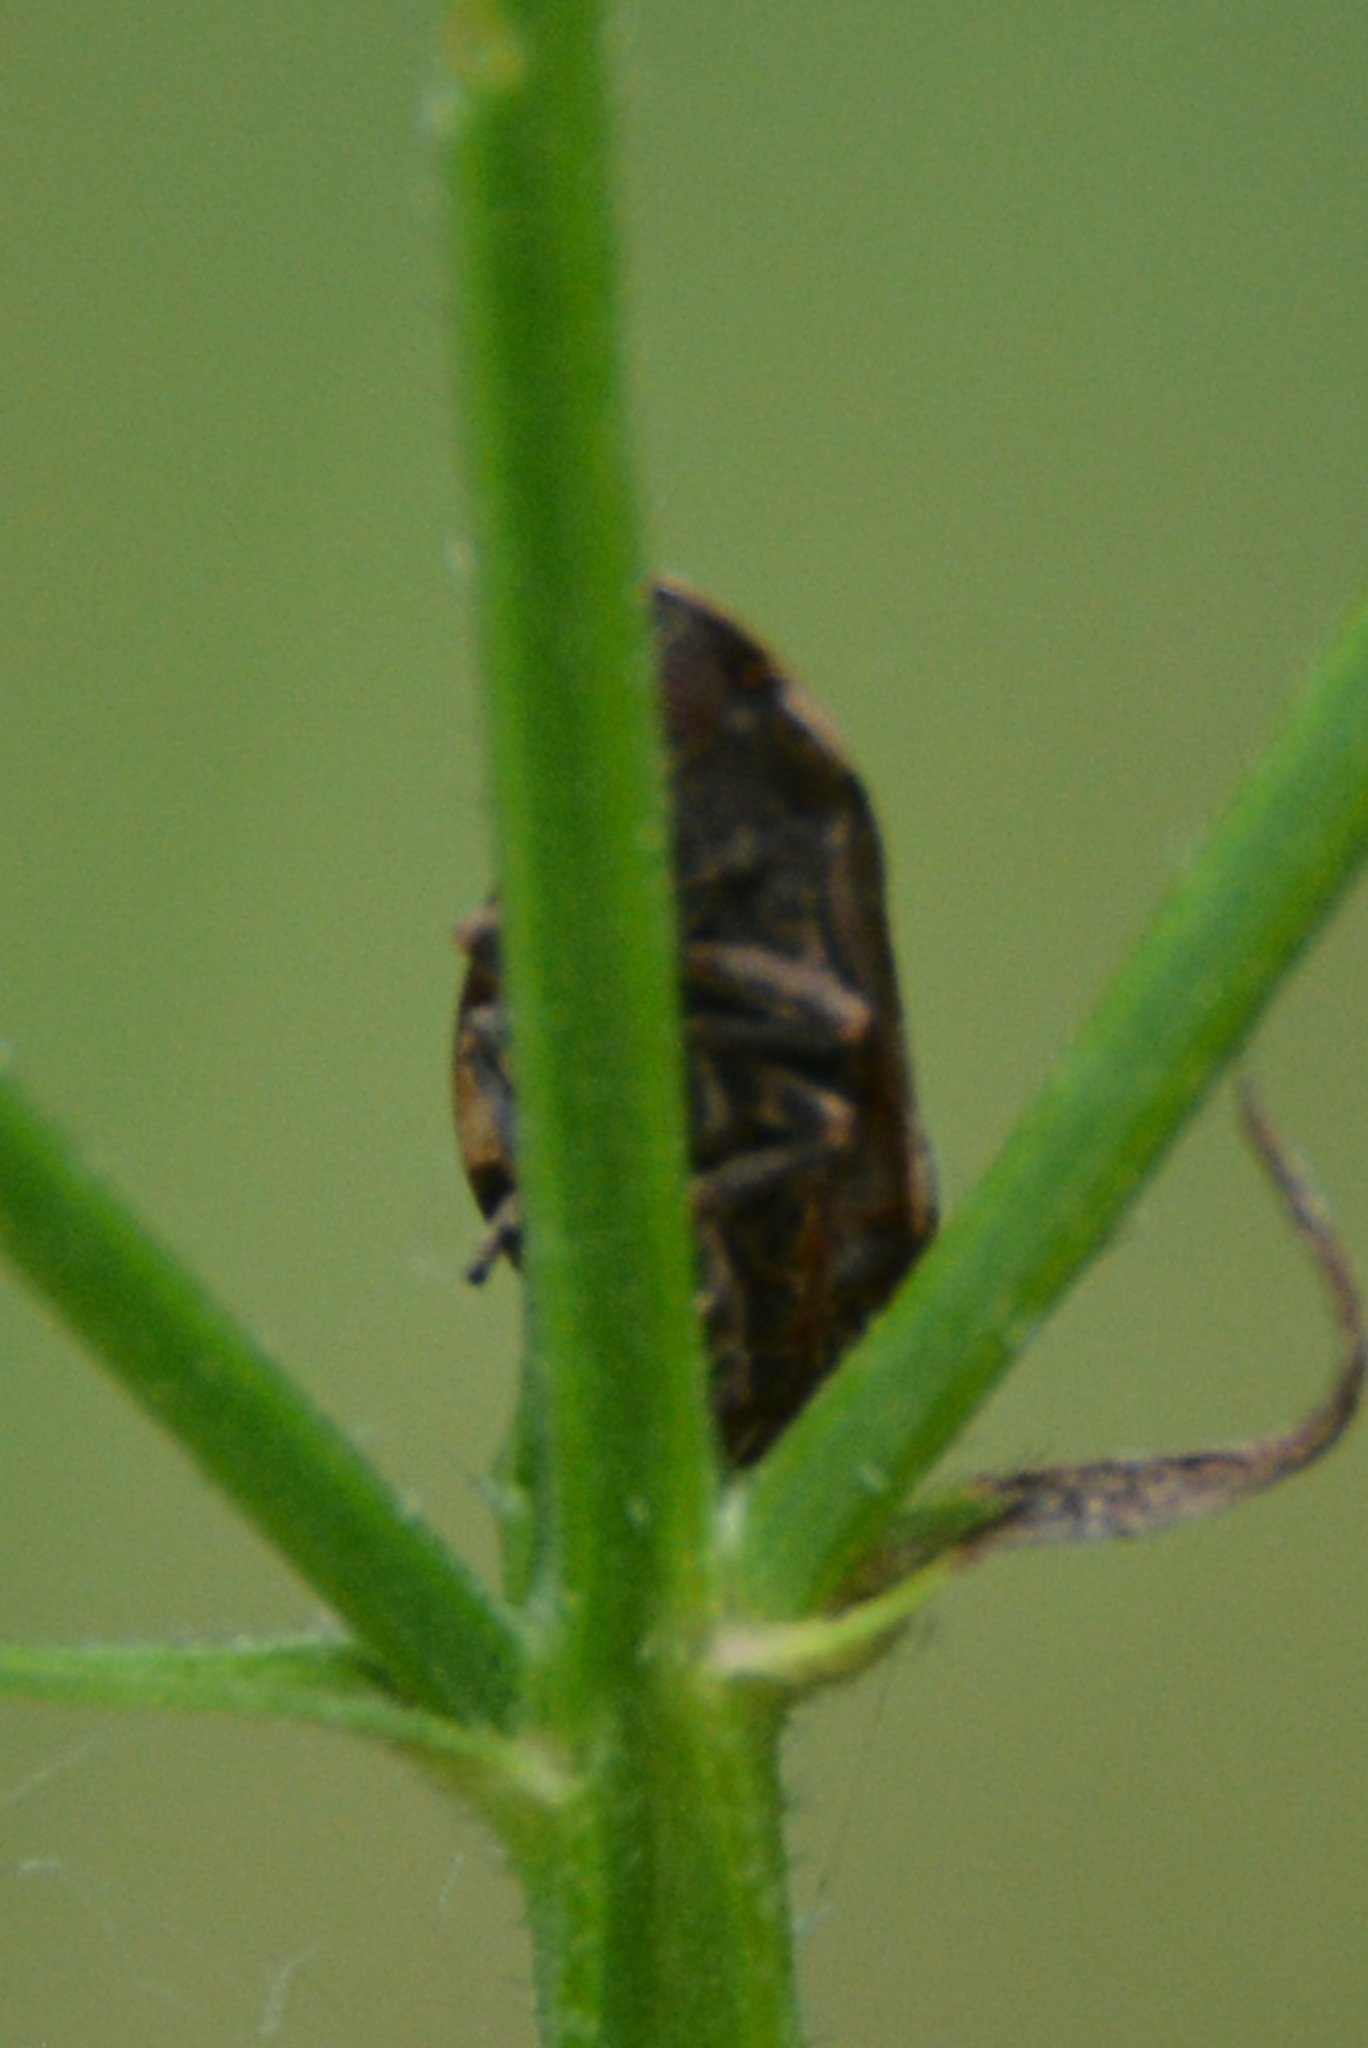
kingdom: Animalia
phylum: Arthropoda
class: Insecta
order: Hemiptera
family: Aphrophoridae
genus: Lepyronia
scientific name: Lepyronia quadrangularis
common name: Diamond-backed spittlebug
